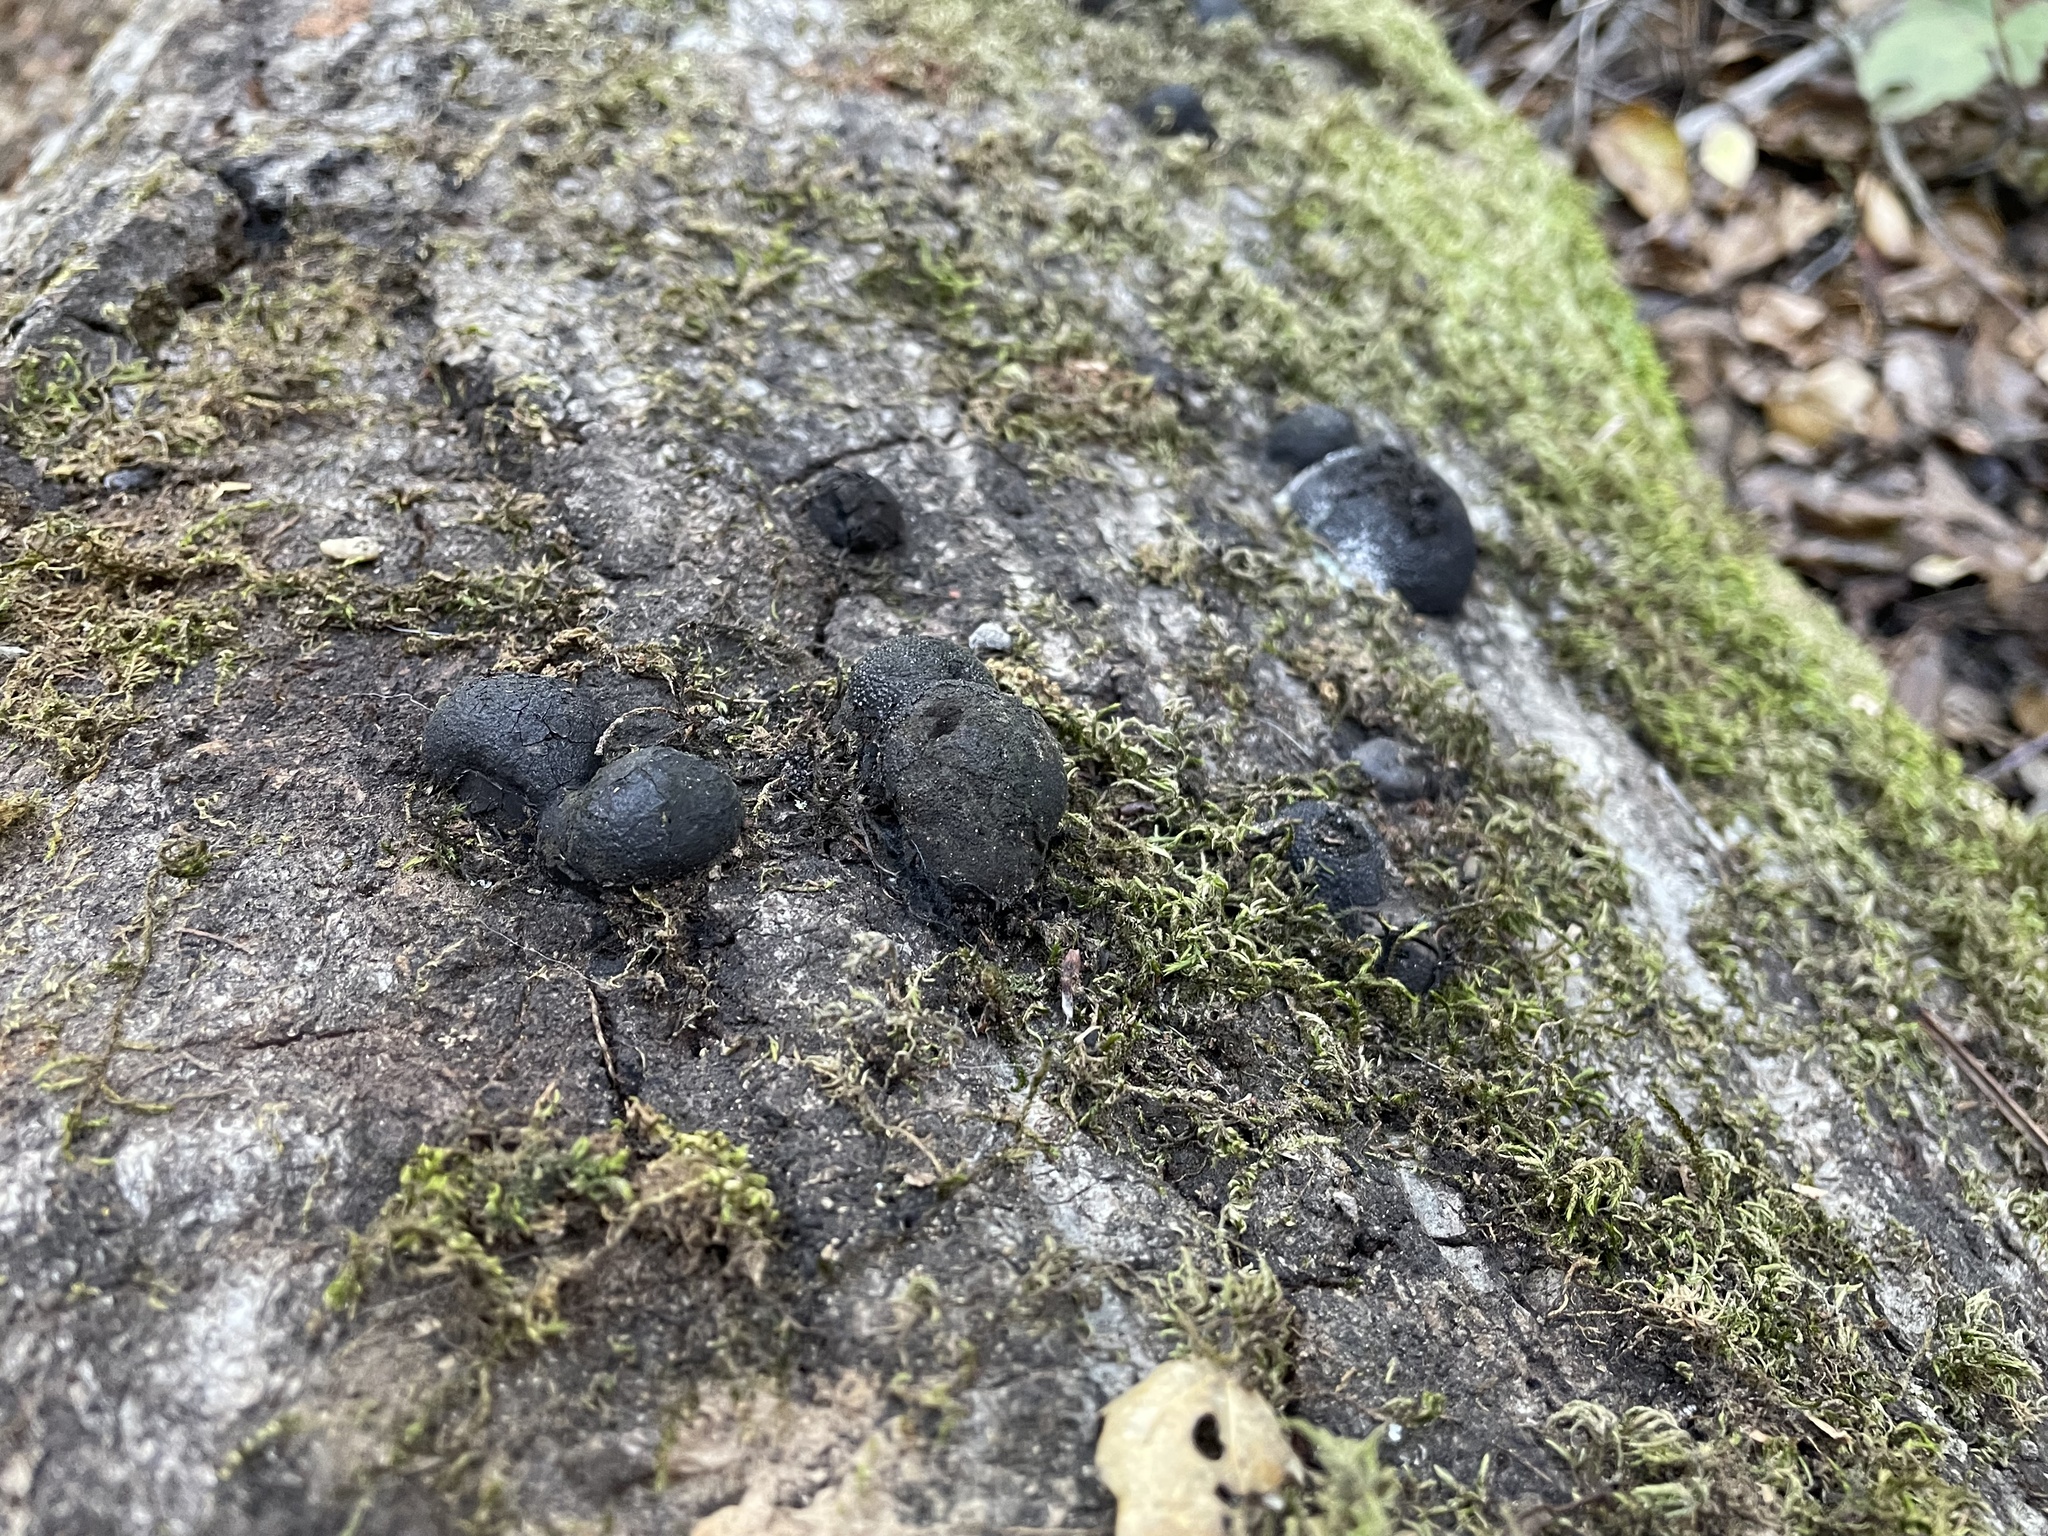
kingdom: Fungi
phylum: Ascomycota
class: Sordariomycetes
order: Xylariales
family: Hypoxylaceae
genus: Annulohypoxylon
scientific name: Annulohypoxylon thouarsianum
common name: Cramp balls
